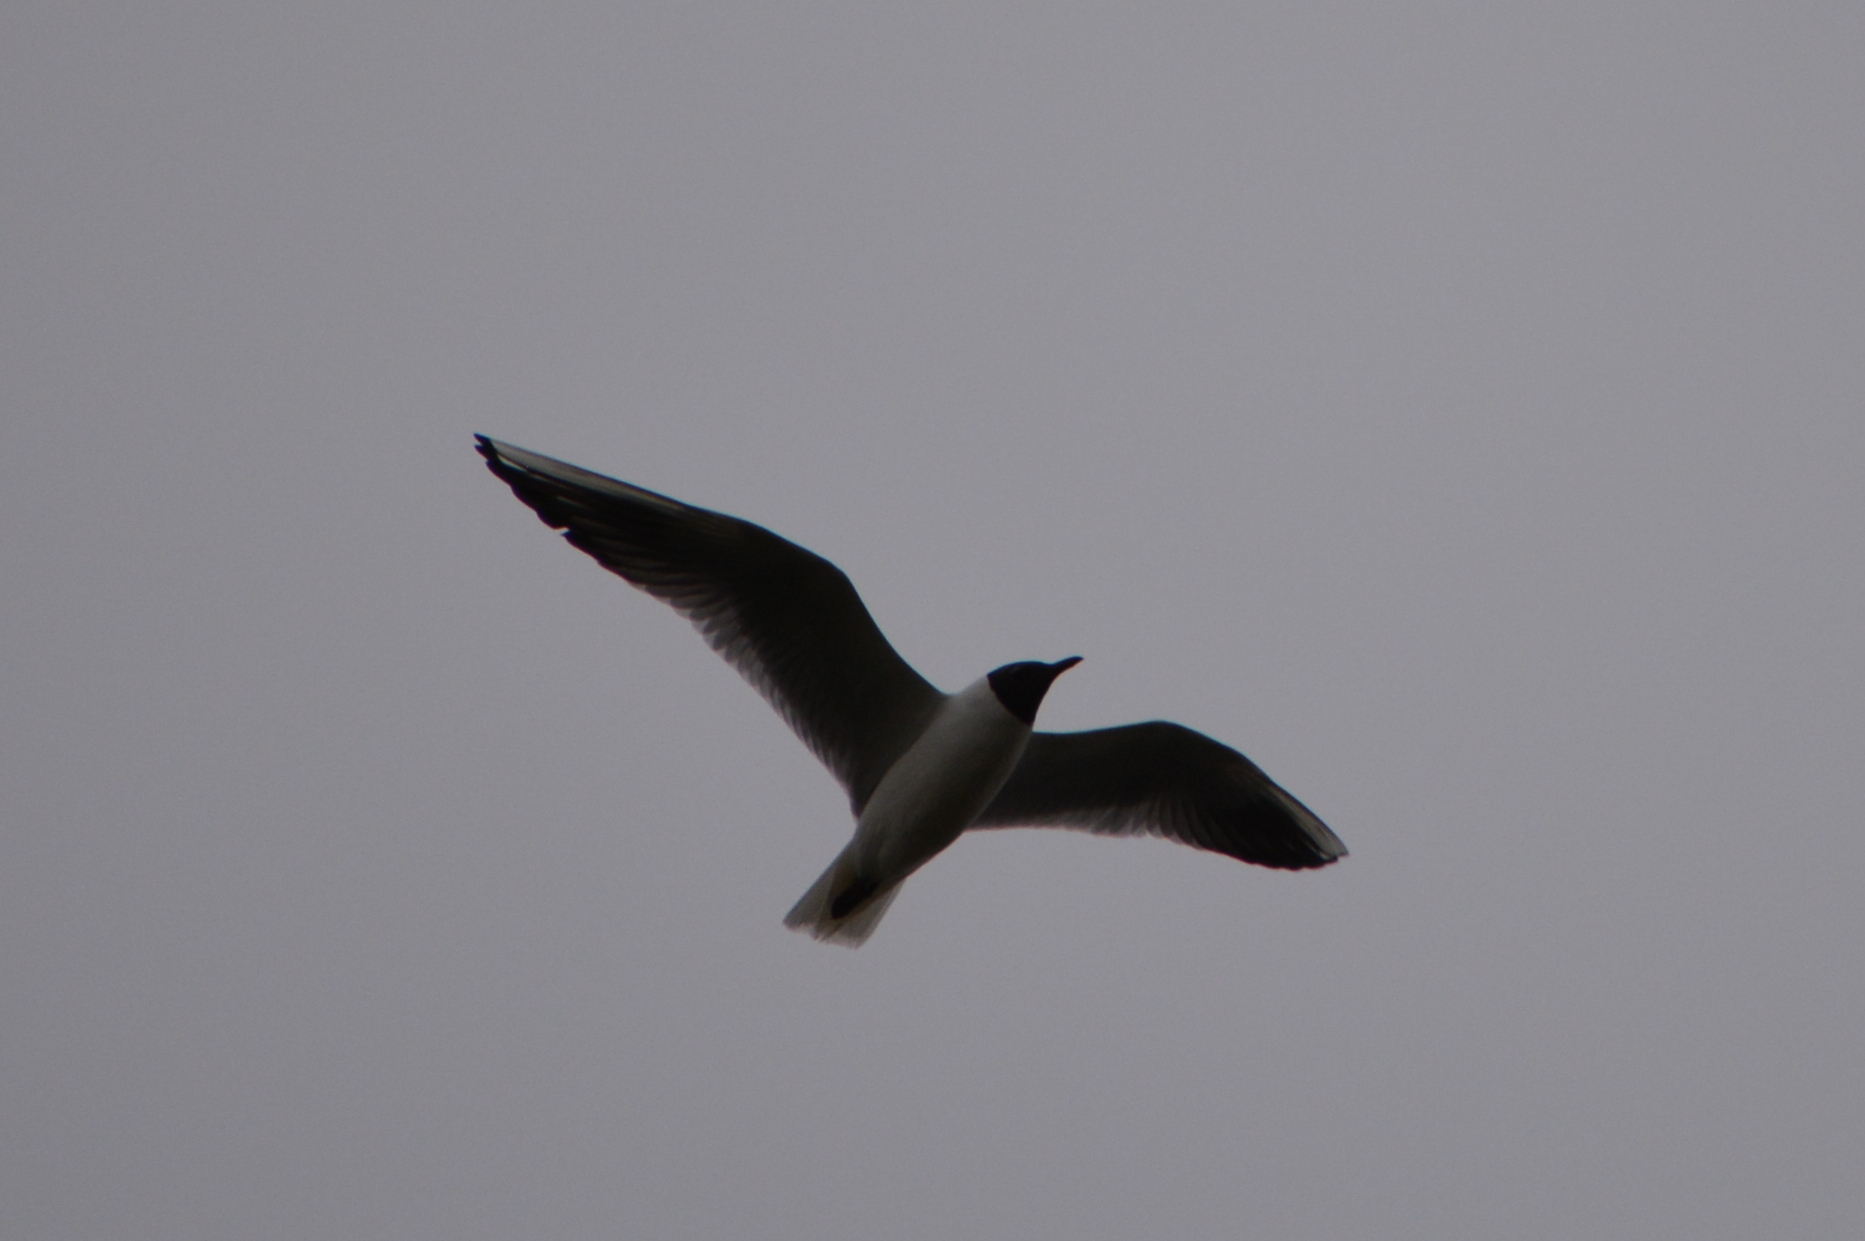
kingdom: Animalia
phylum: Chordata
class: Aves
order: Charadriiformes
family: Laridae
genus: Chroicocephalus
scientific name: Chroicocephalus ridibundus
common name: Black-headed gull
